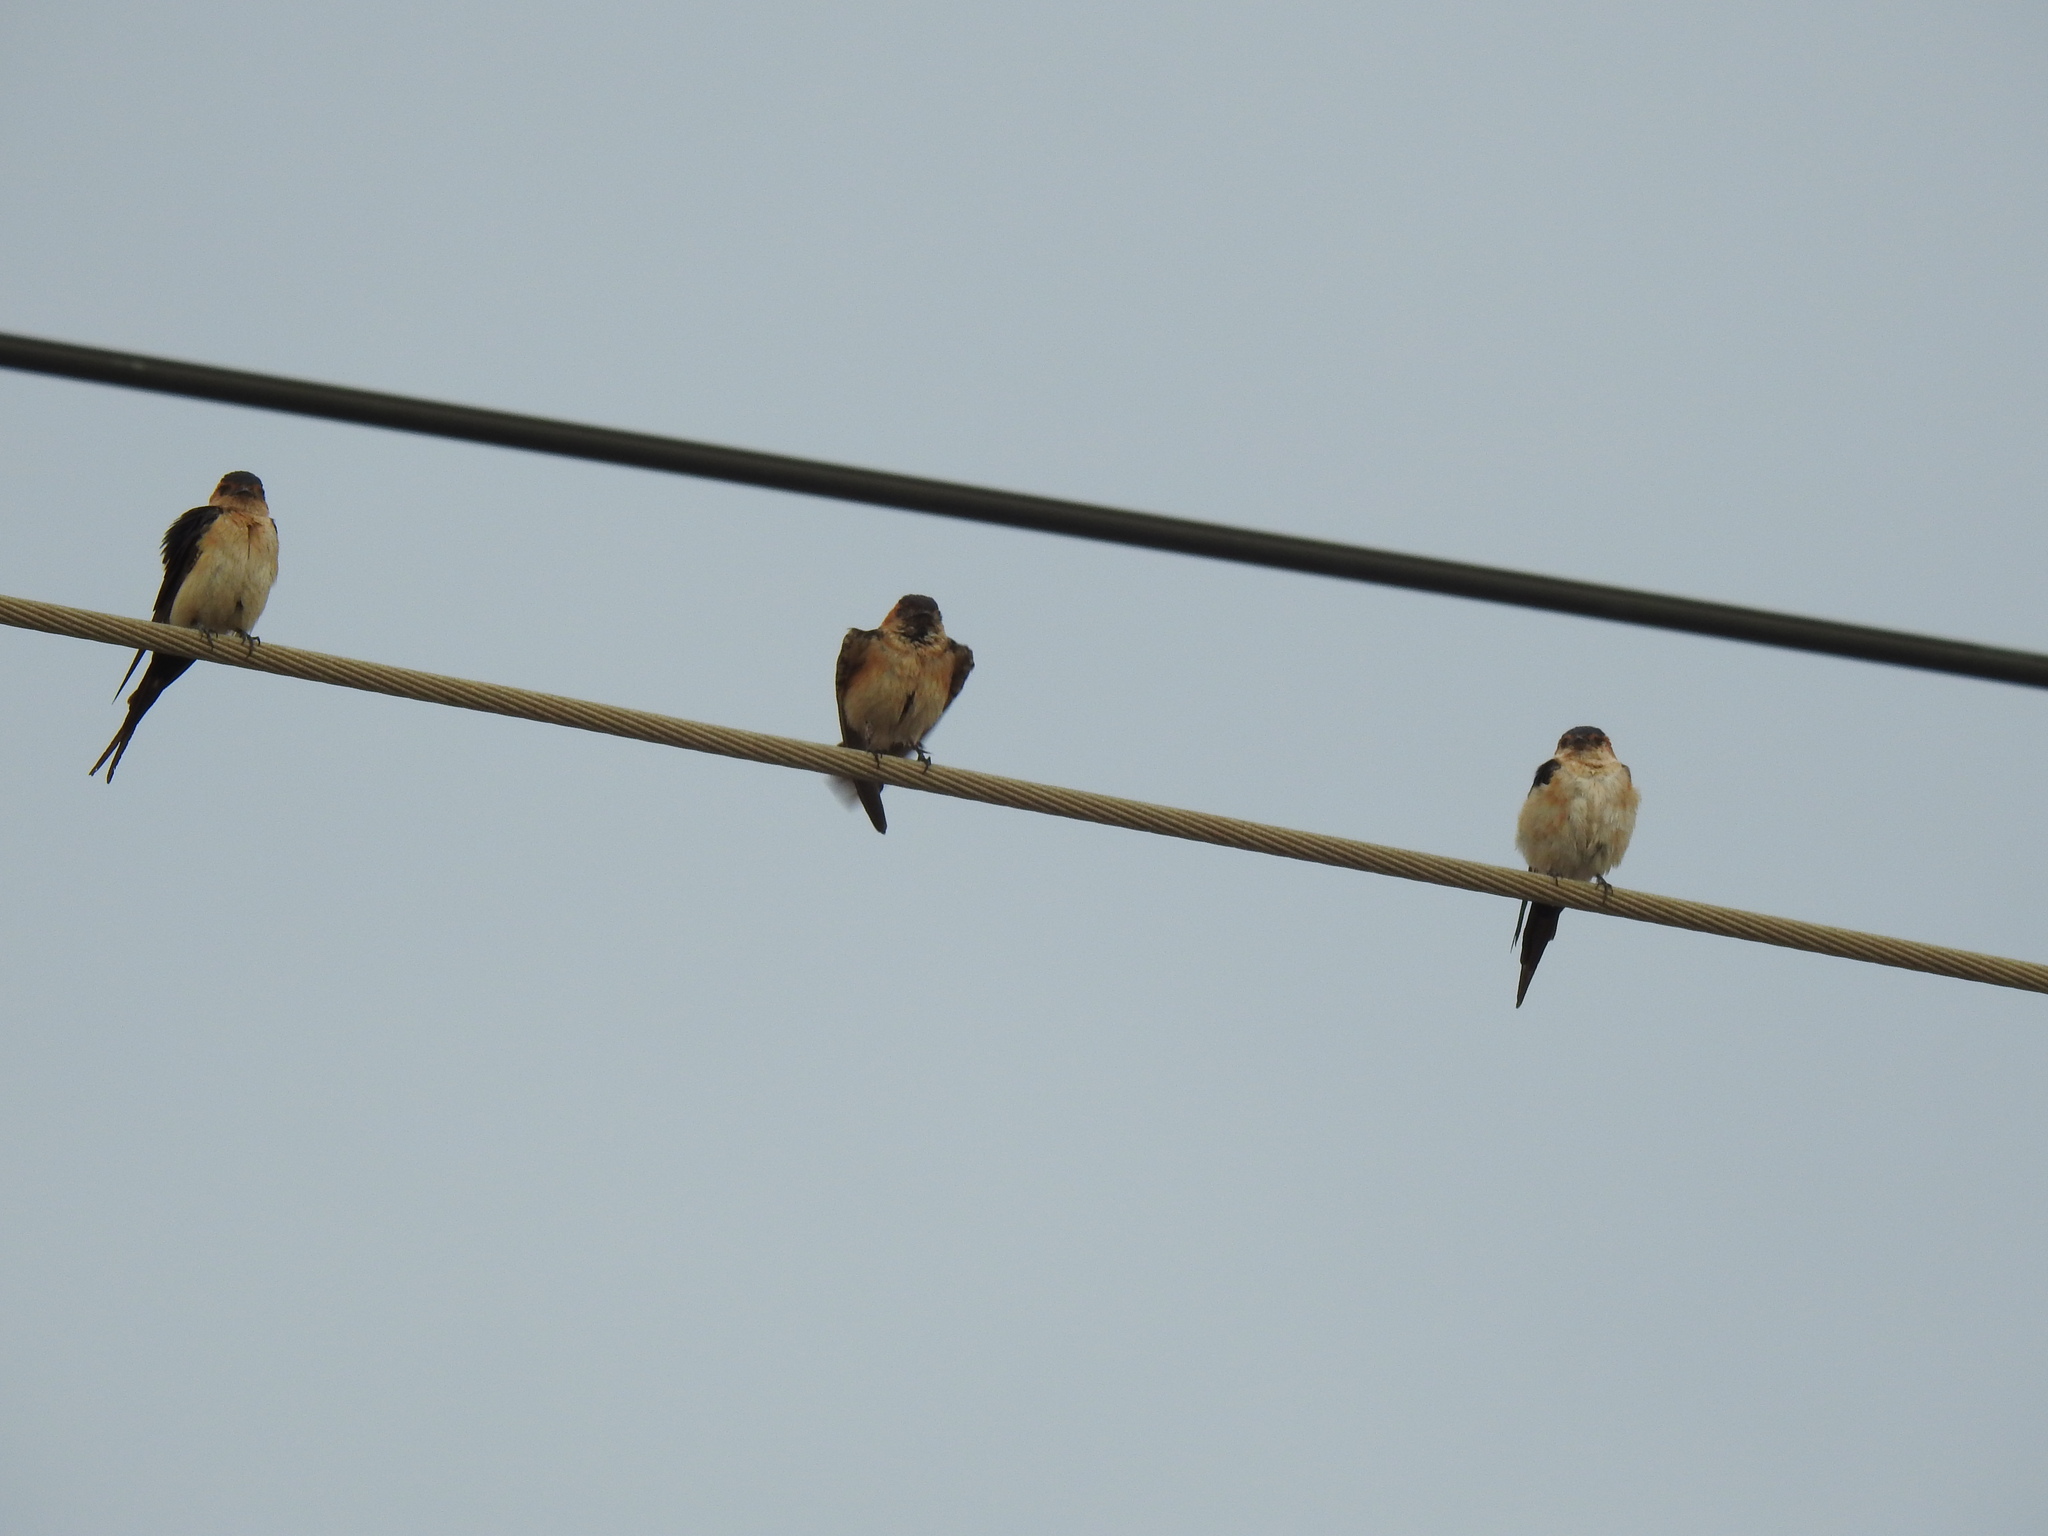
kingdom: Animalia
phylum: Chordata
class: Aves
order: Passeriformes
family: Hirundinidae
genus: Cecropis
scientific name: Cecropis daurica
